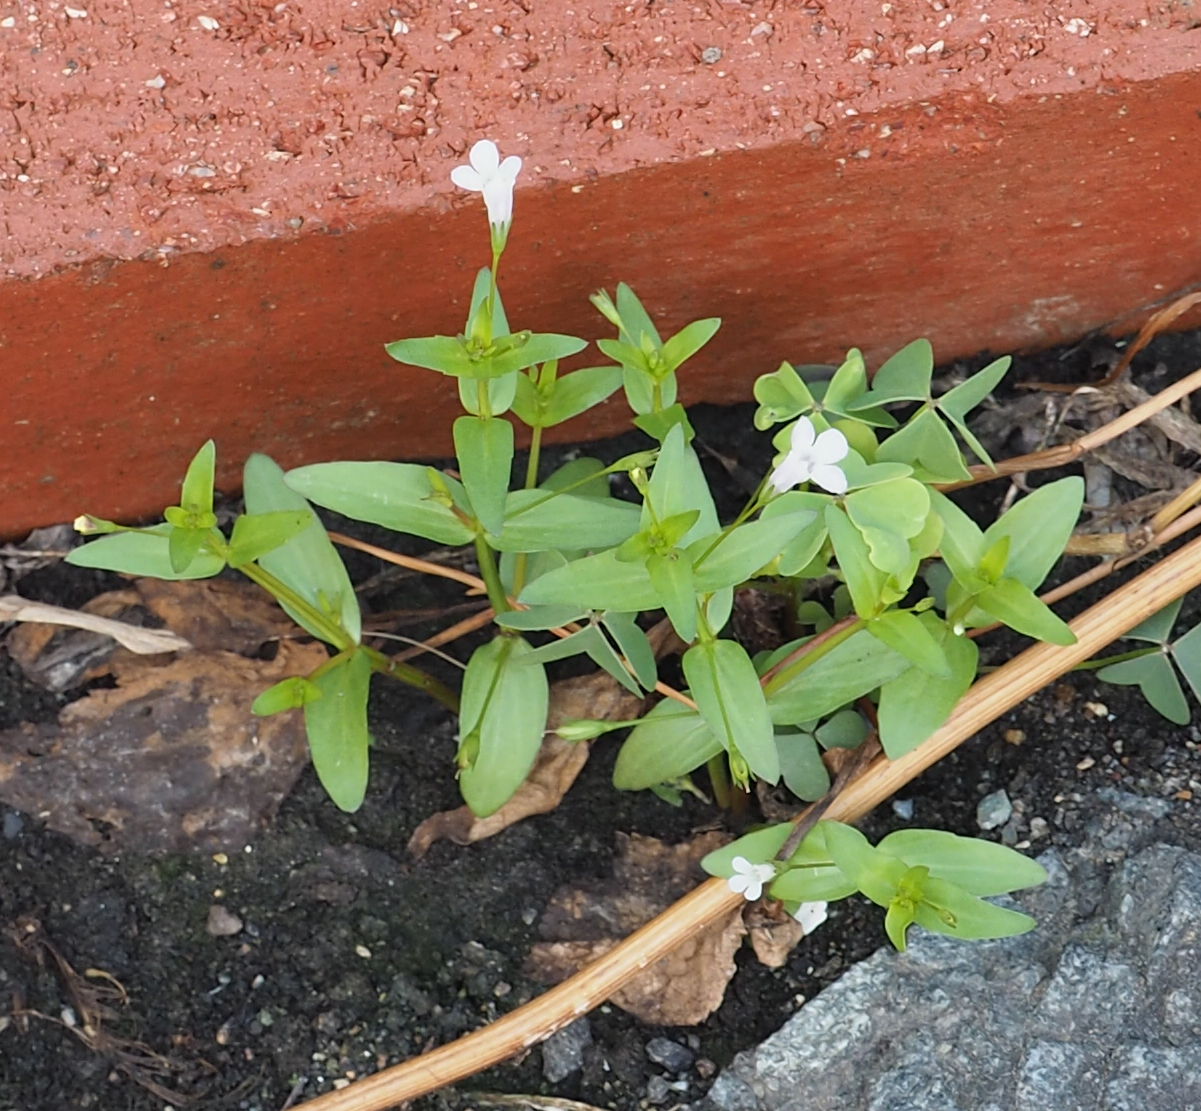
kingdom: Plantae
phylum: Tracheophyta
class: Magnoliopsida
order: Lamiales
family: Linderniaceae
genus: Lindernia
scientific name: Lindernia dubia
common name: Annual false pimpernel
